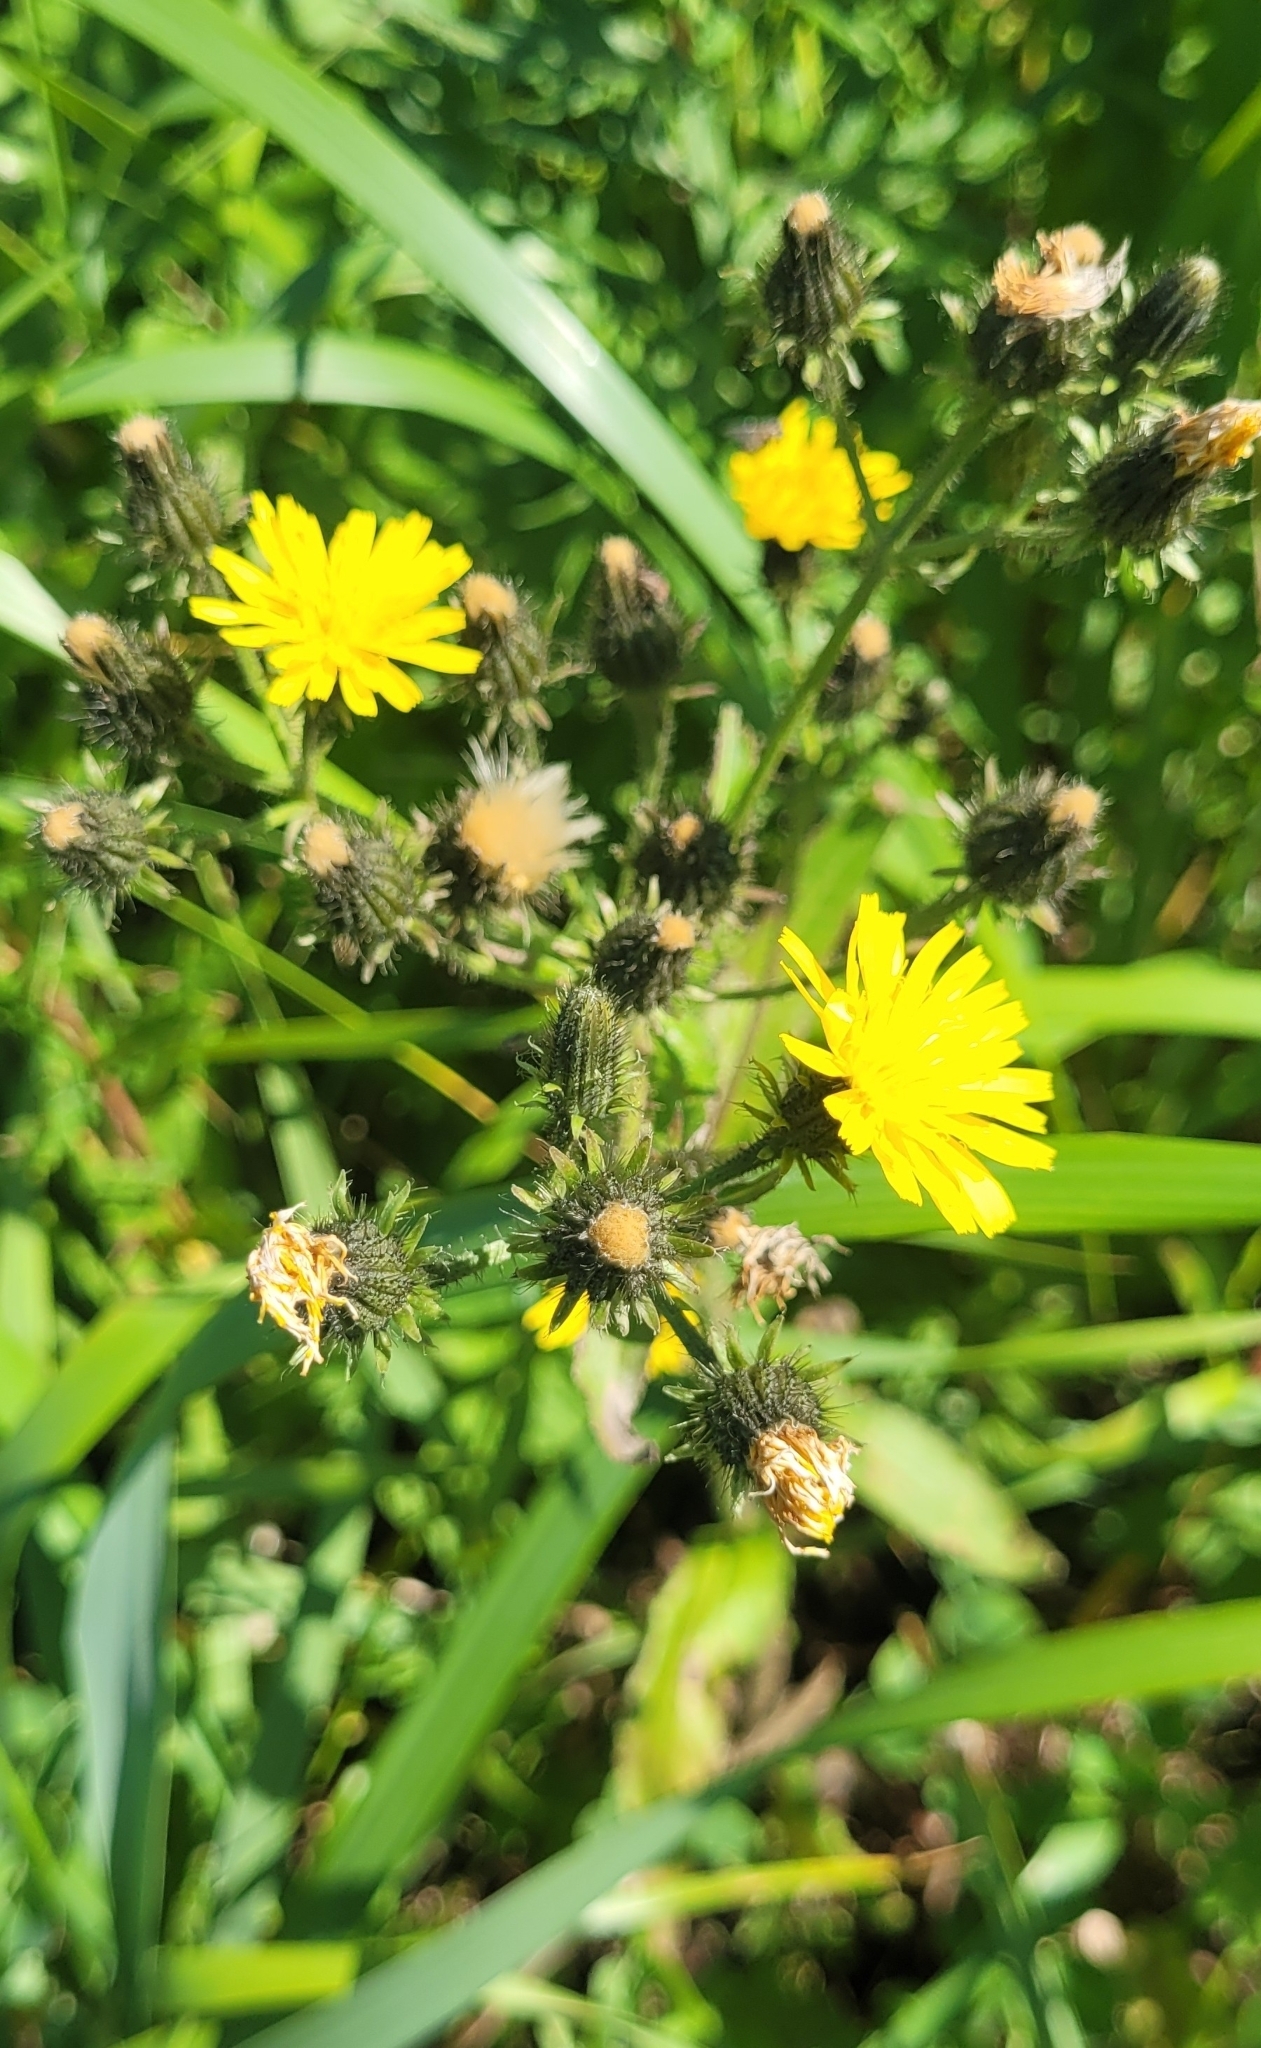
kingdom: Plantae
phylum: Tracheophyta
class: Magnoliopsida
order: Asterales
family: Asteraceae
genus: Picris
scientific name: Picris japonica
